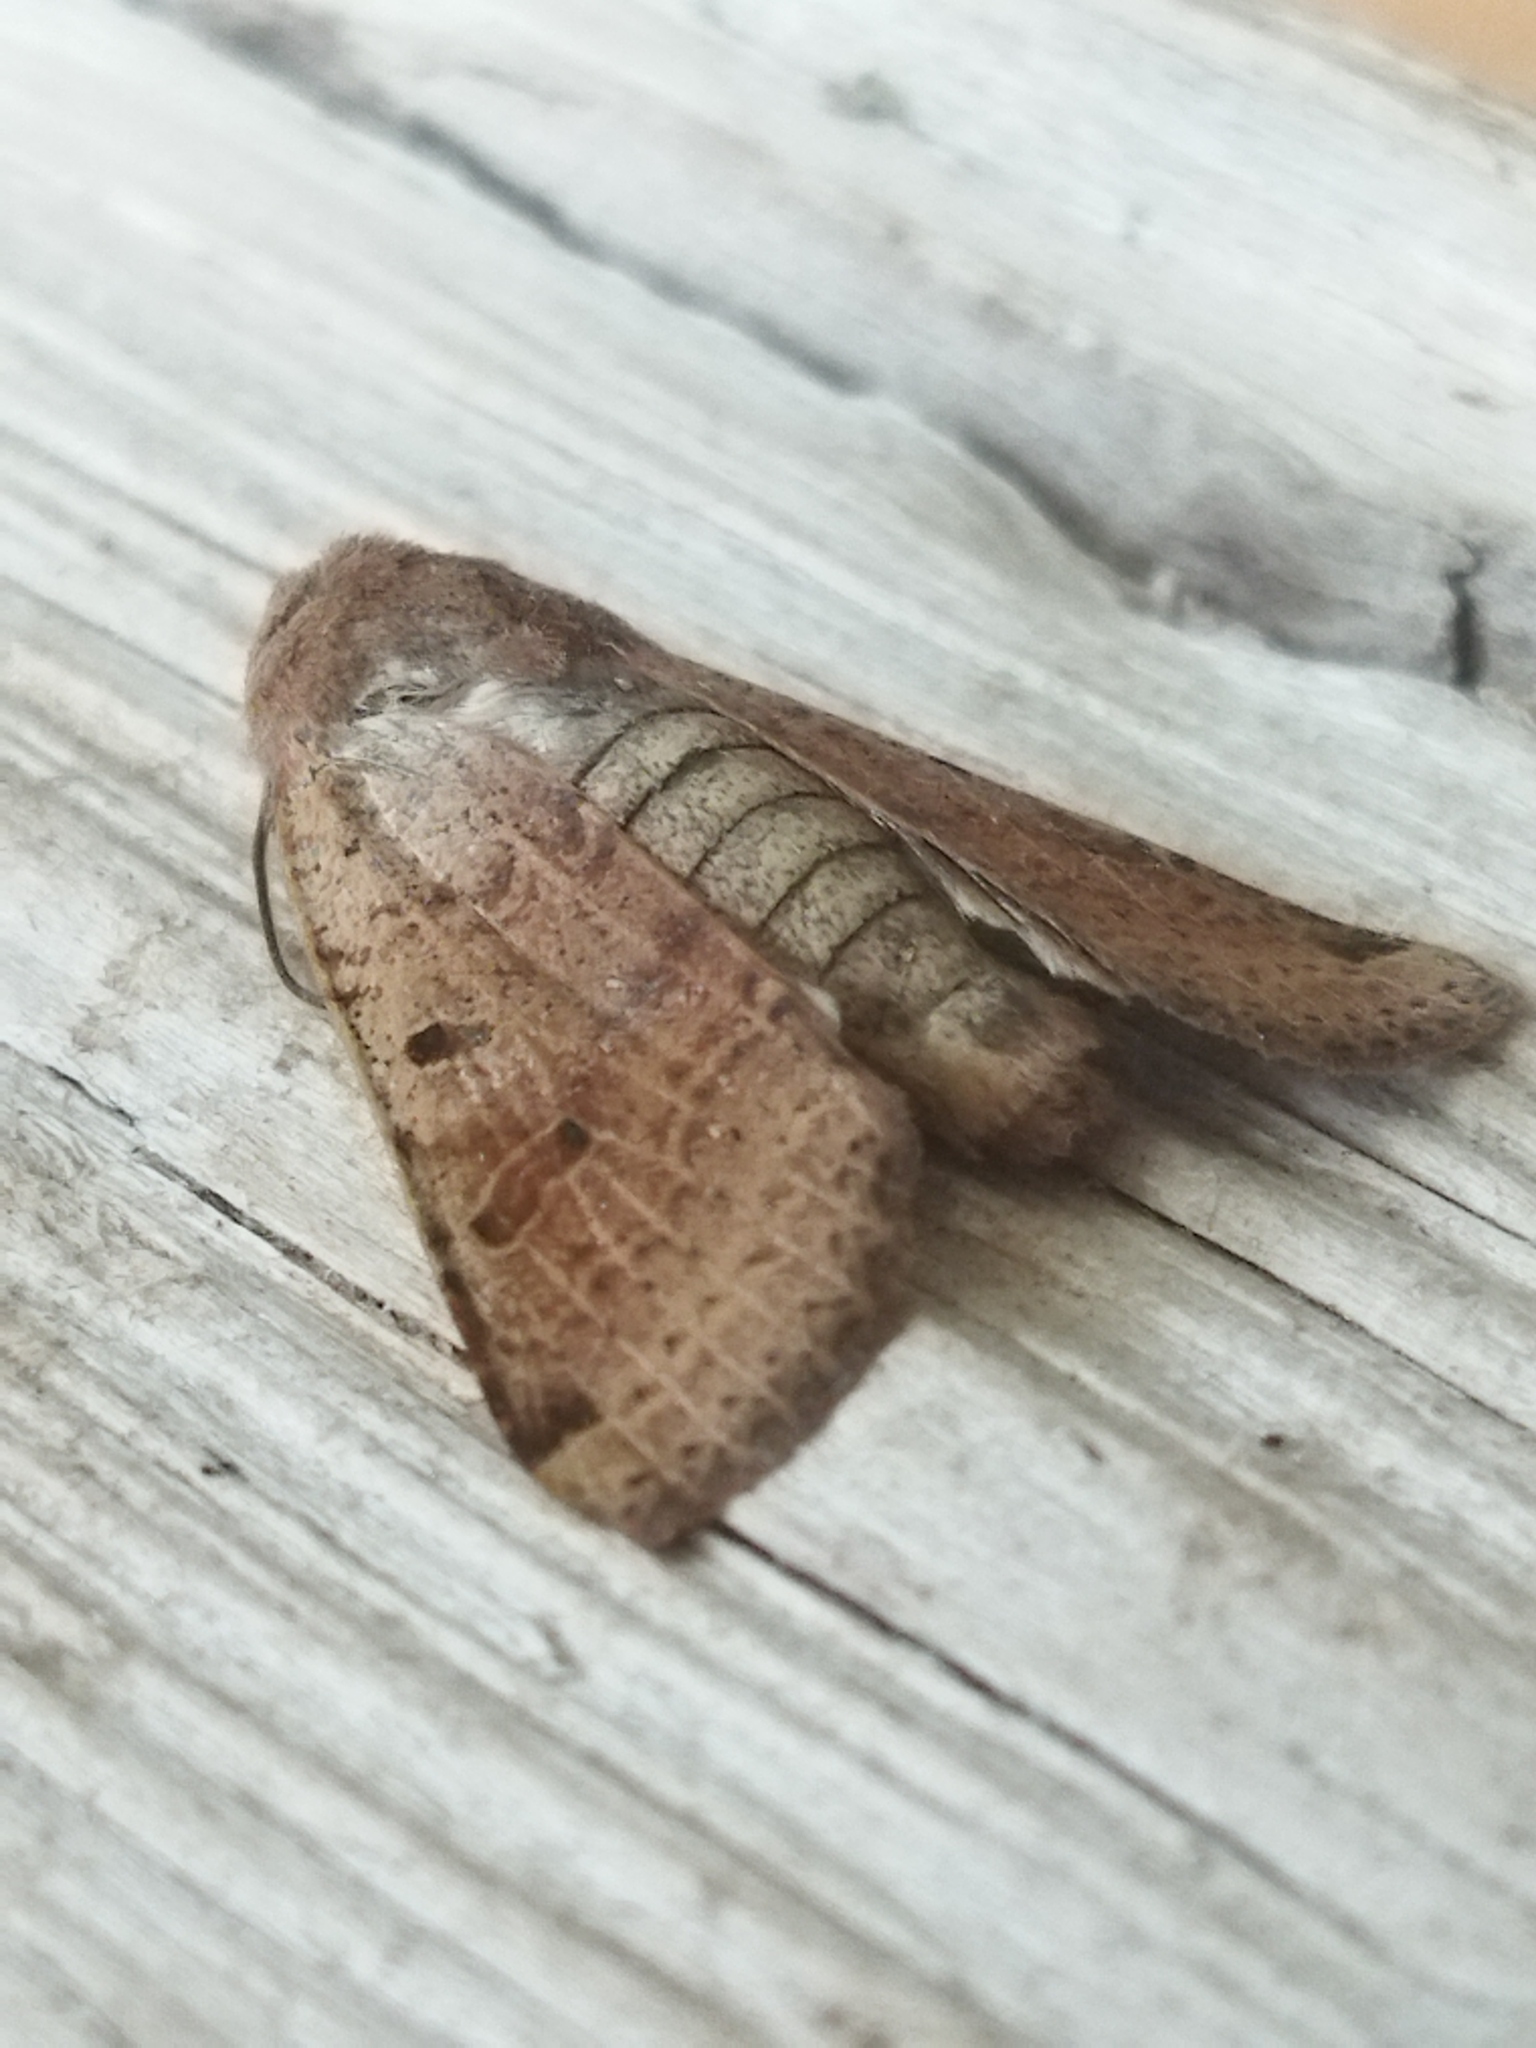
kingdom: Animalia
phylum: Arthropoda
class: Insecta
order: Lepidoptera
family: Noctuidae
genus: Agrochola
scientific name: Agrochola lychnidis
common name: Beaded chestnut
